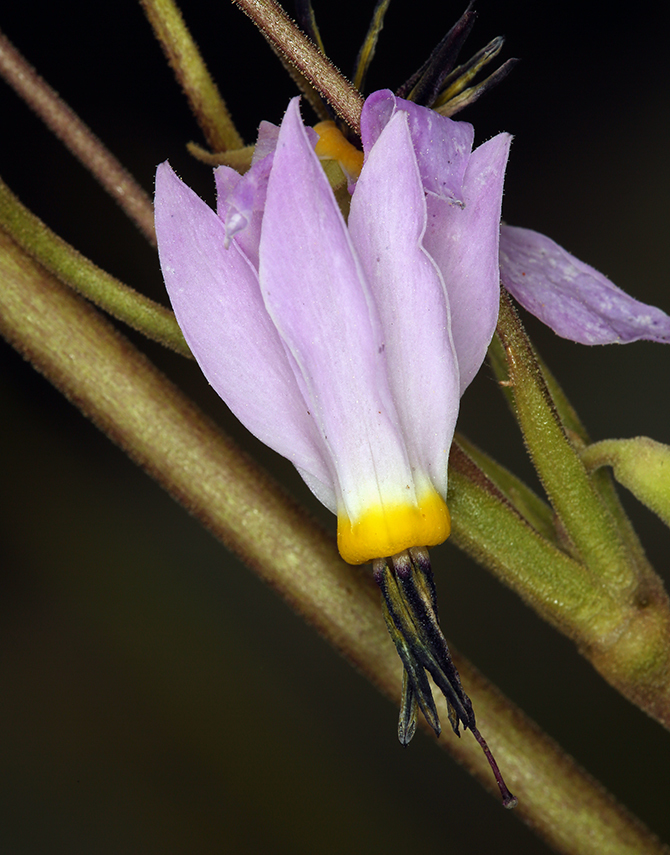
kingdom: Plantae
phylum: Tracheophyta
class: Magnoliopsida
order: Ericales
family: Primulaceae
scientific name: Primulaceae
